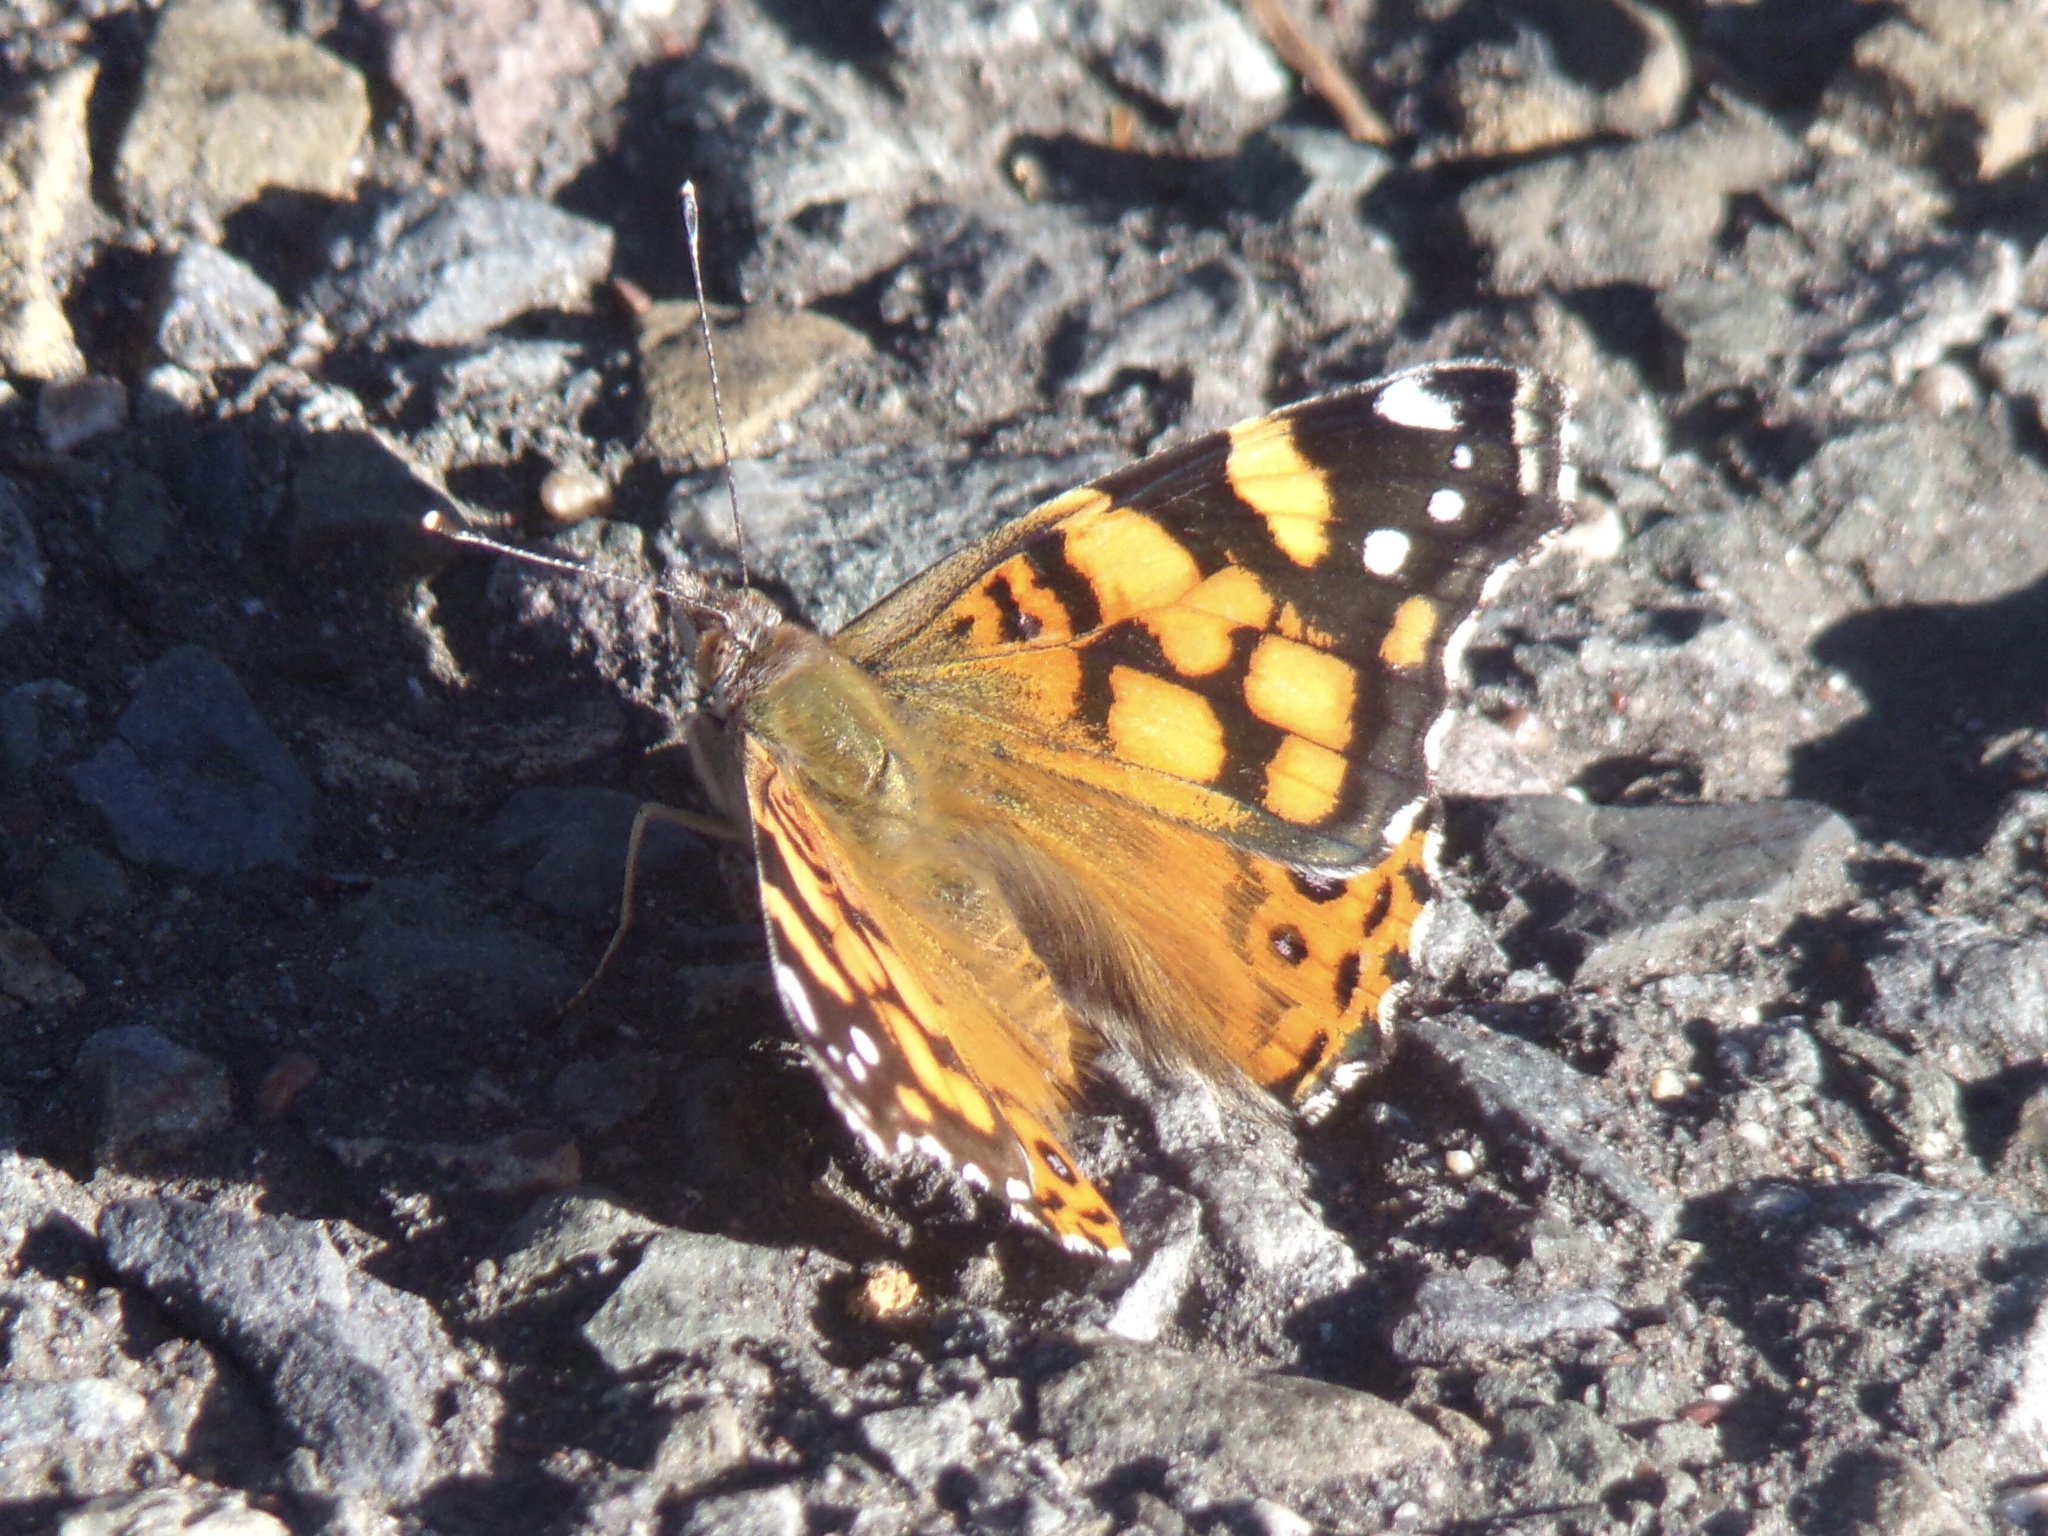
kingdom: Animalia
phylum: Arthropoda
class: Insecta
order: Lepidoptera
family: Nymphalidae
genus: Vanessa
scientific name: Vanessa annabella
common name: West coast lady
